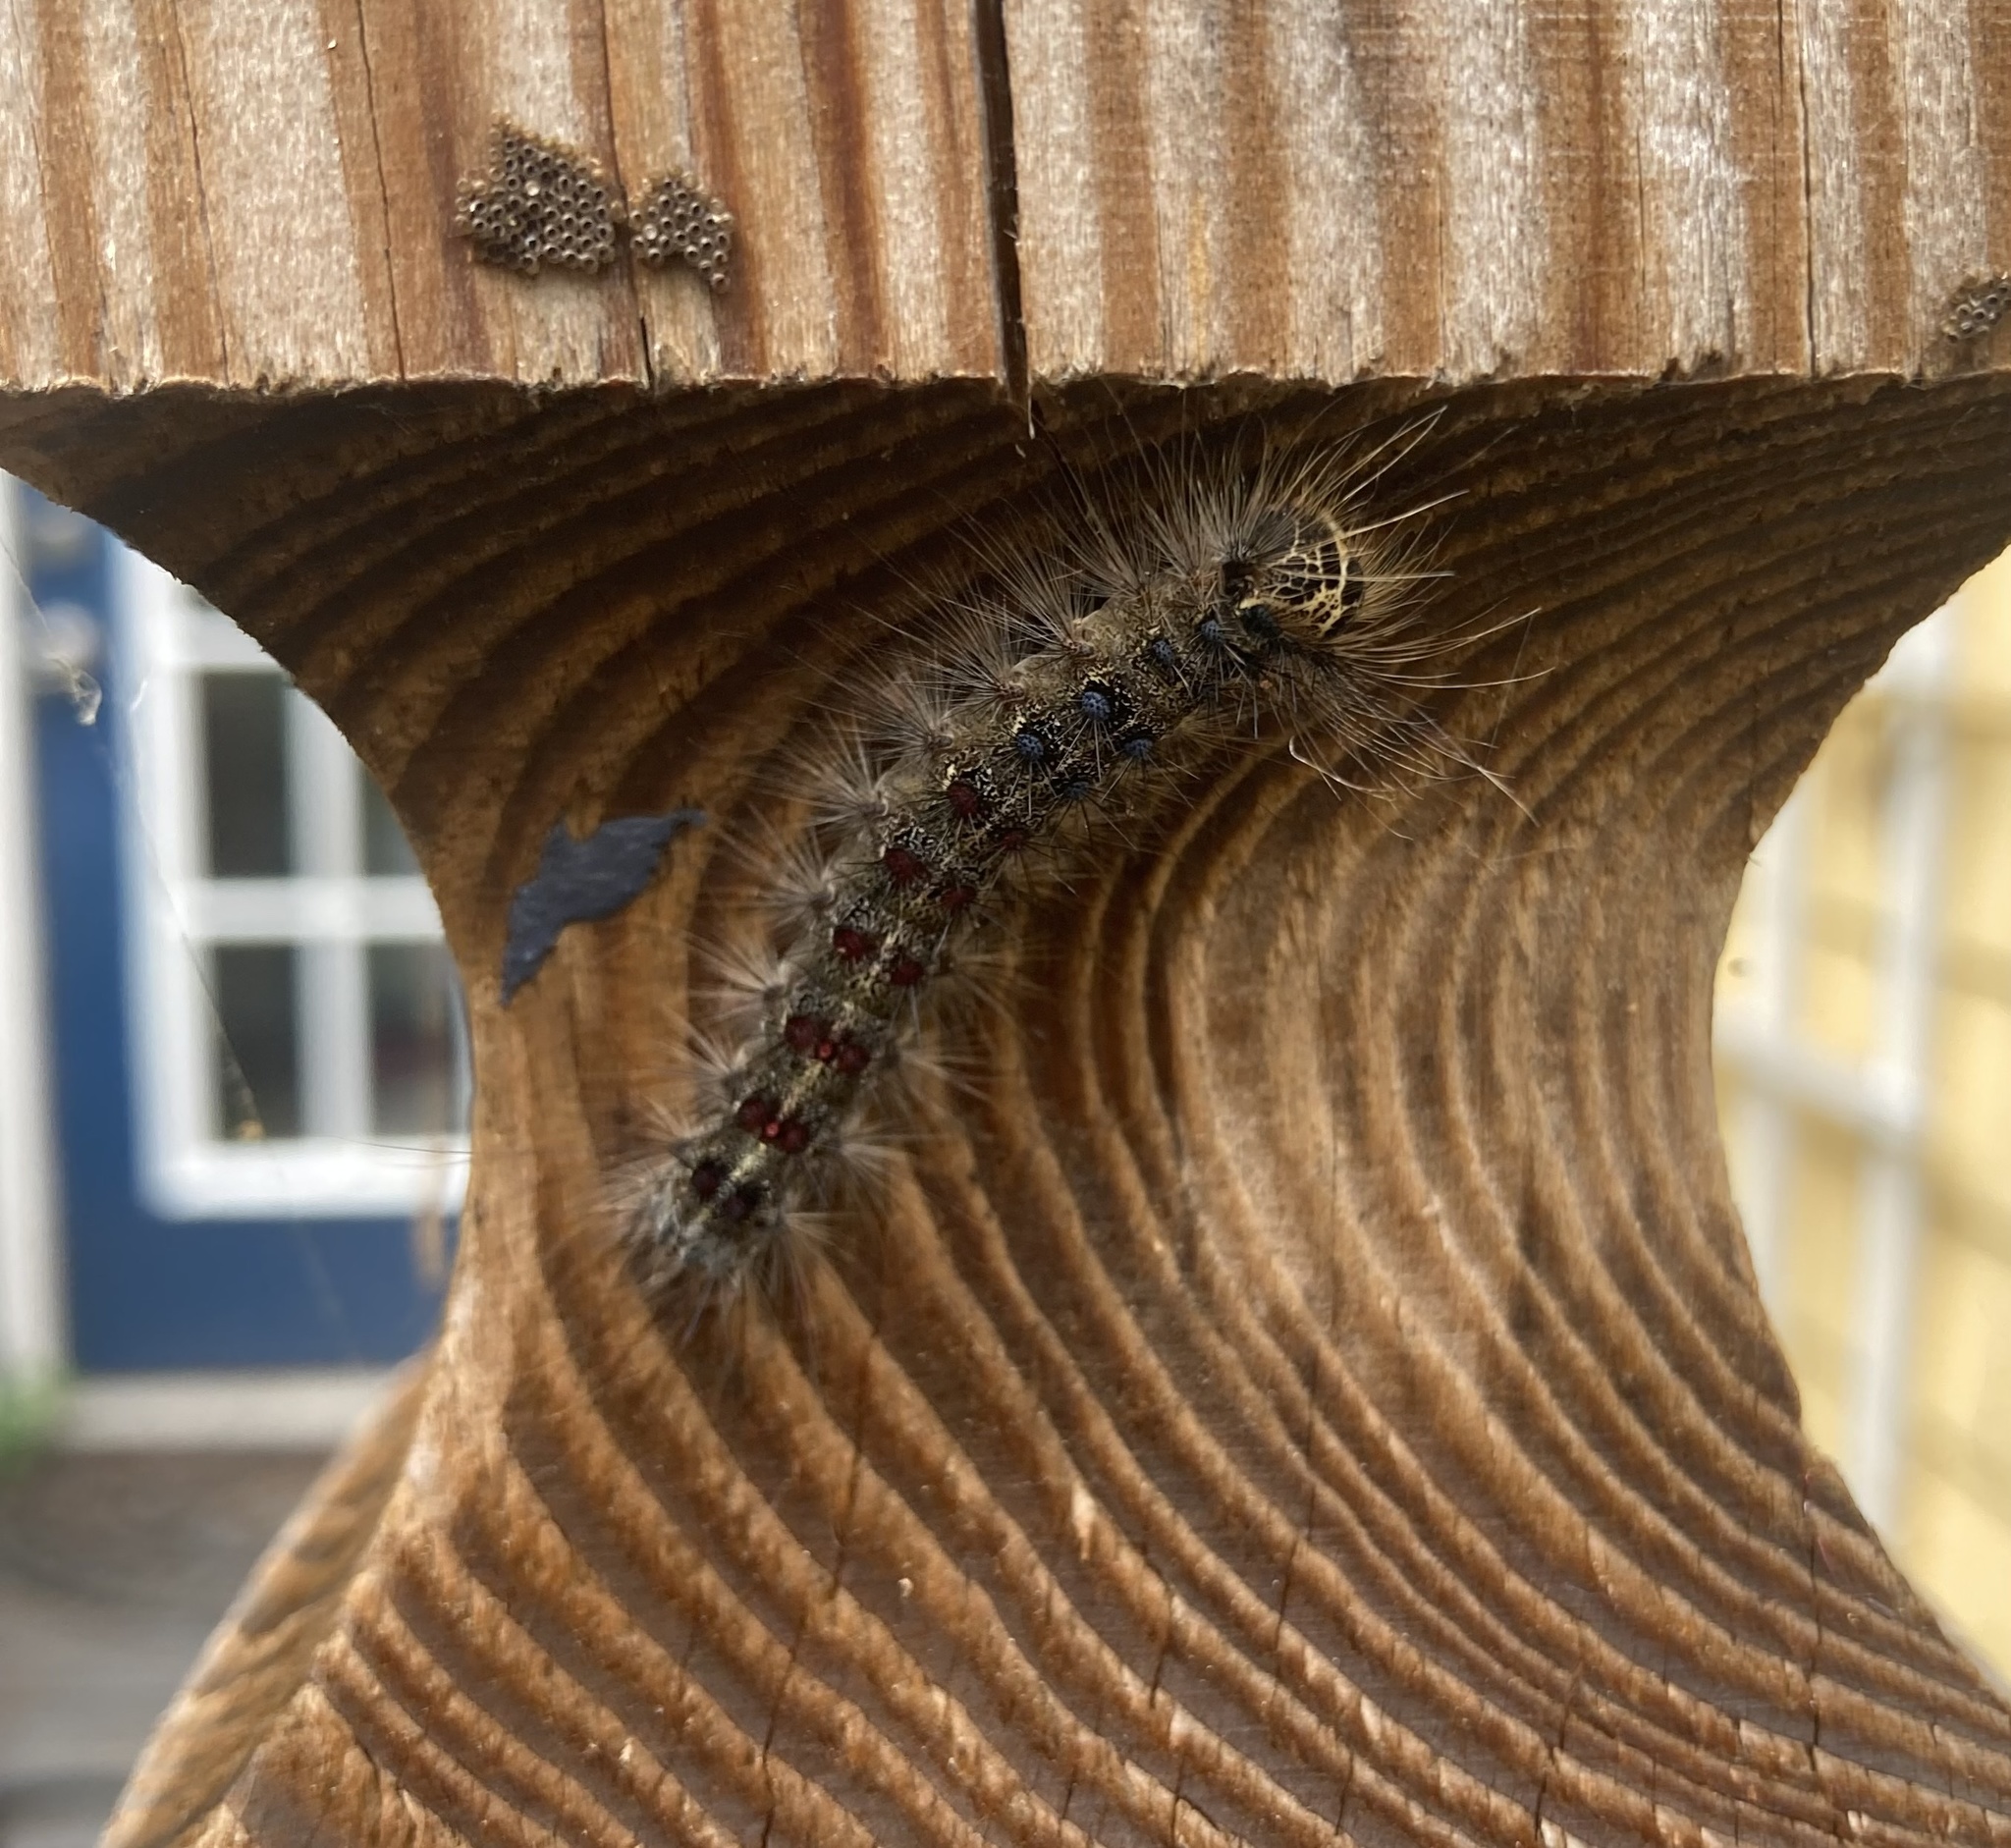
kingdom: Animalia
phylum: Arthropoda
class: Insecta
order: Lepidoptera
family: Erebidae
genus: Lymantria
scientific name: Lymantria dispar
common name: Gypsy moth
